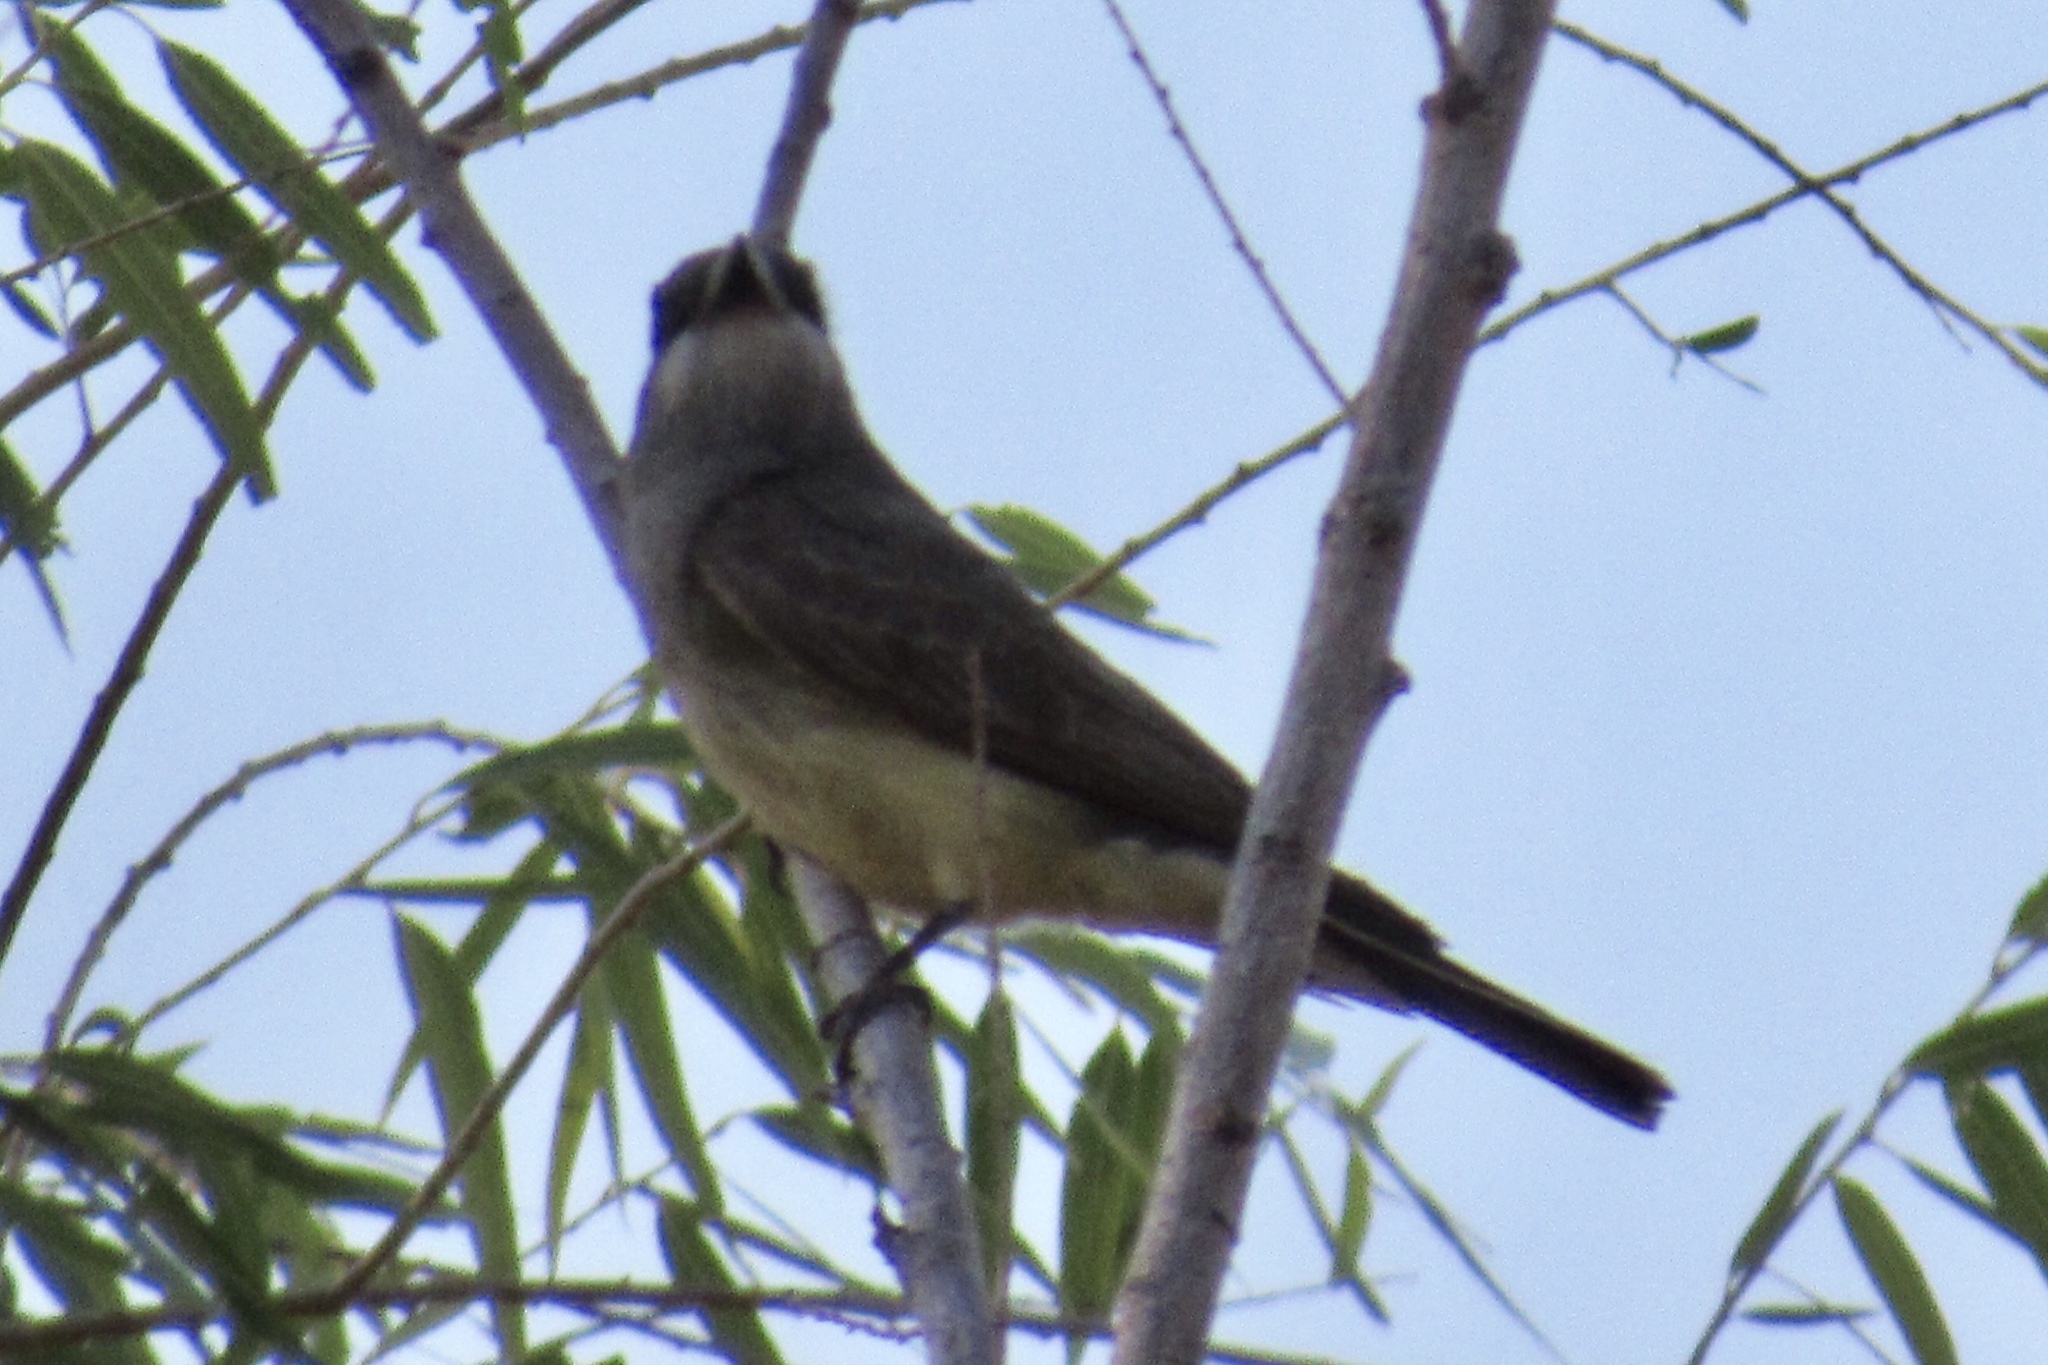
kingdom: Animalia
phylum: Chordata
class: Aves
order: Passeriformes
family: Tyrannidae
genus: Tyrannus
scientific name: Tyrannus vociferans
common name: Cassin's kingbird
